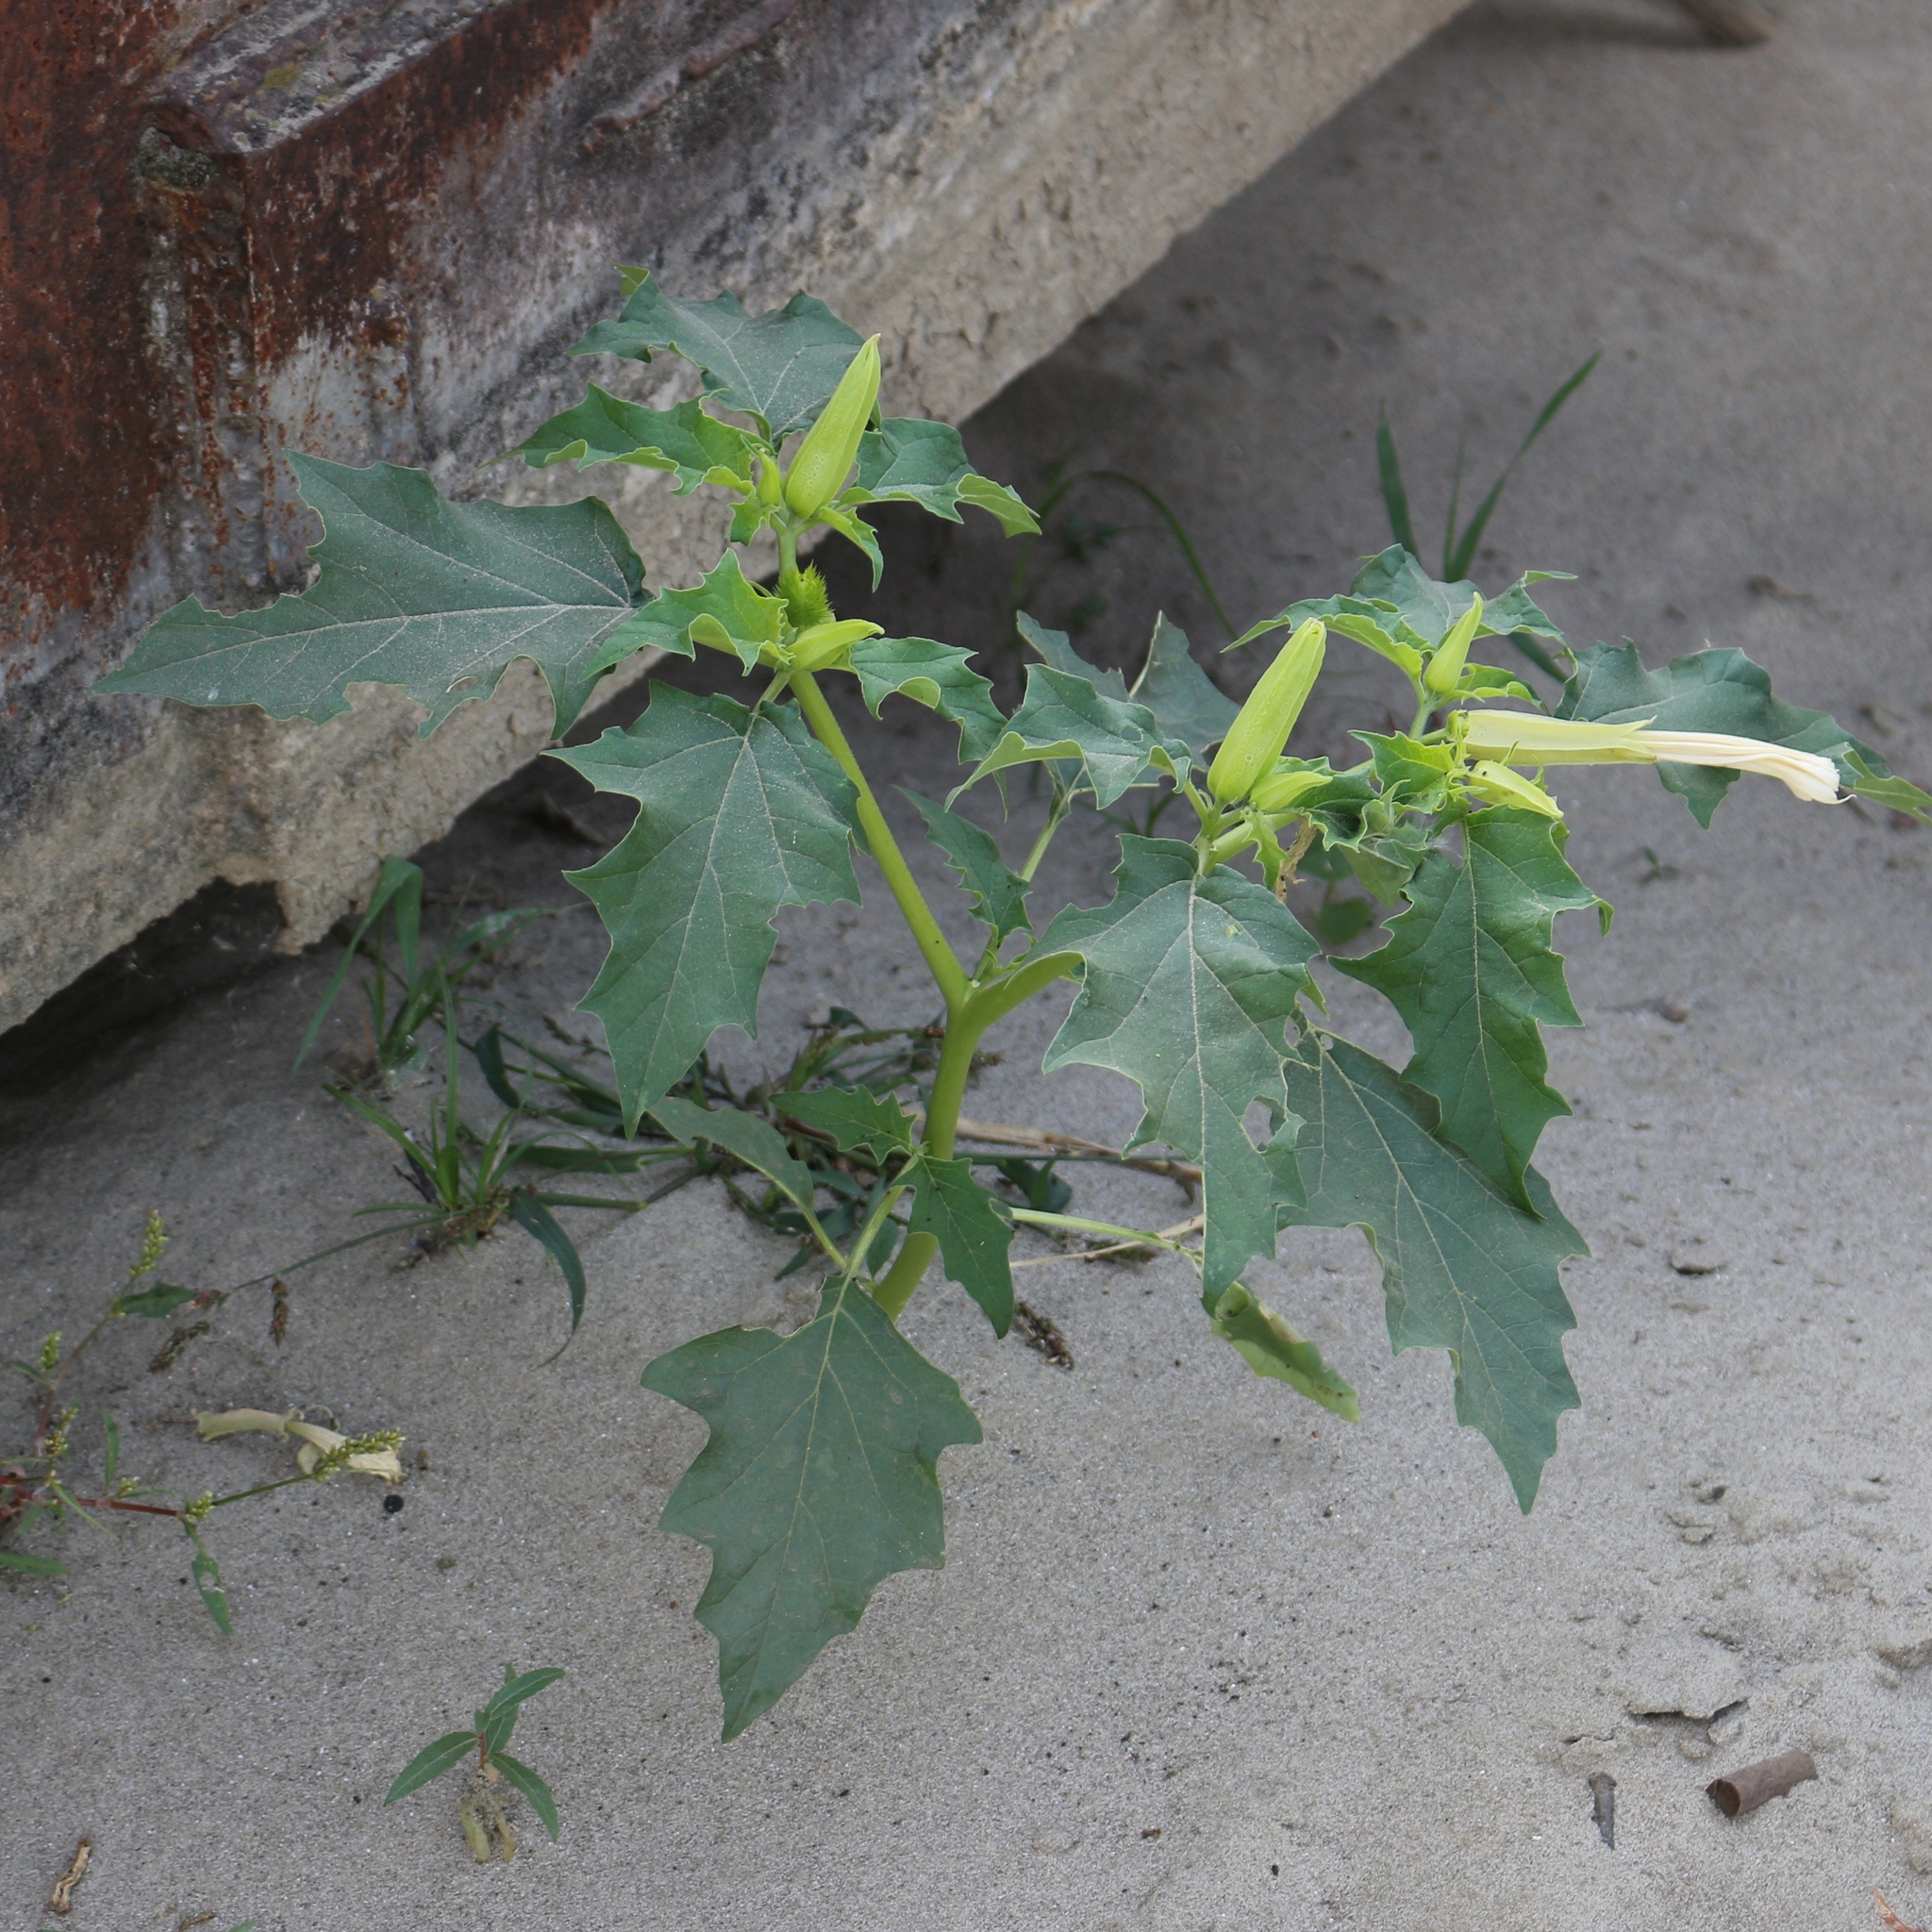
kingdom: Plantae
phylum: Tracheophyta
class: Magnoliopsida
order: Solanales
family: Solanaceae
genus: Datura
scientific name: Datura stramonium
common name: Thorn-apple
